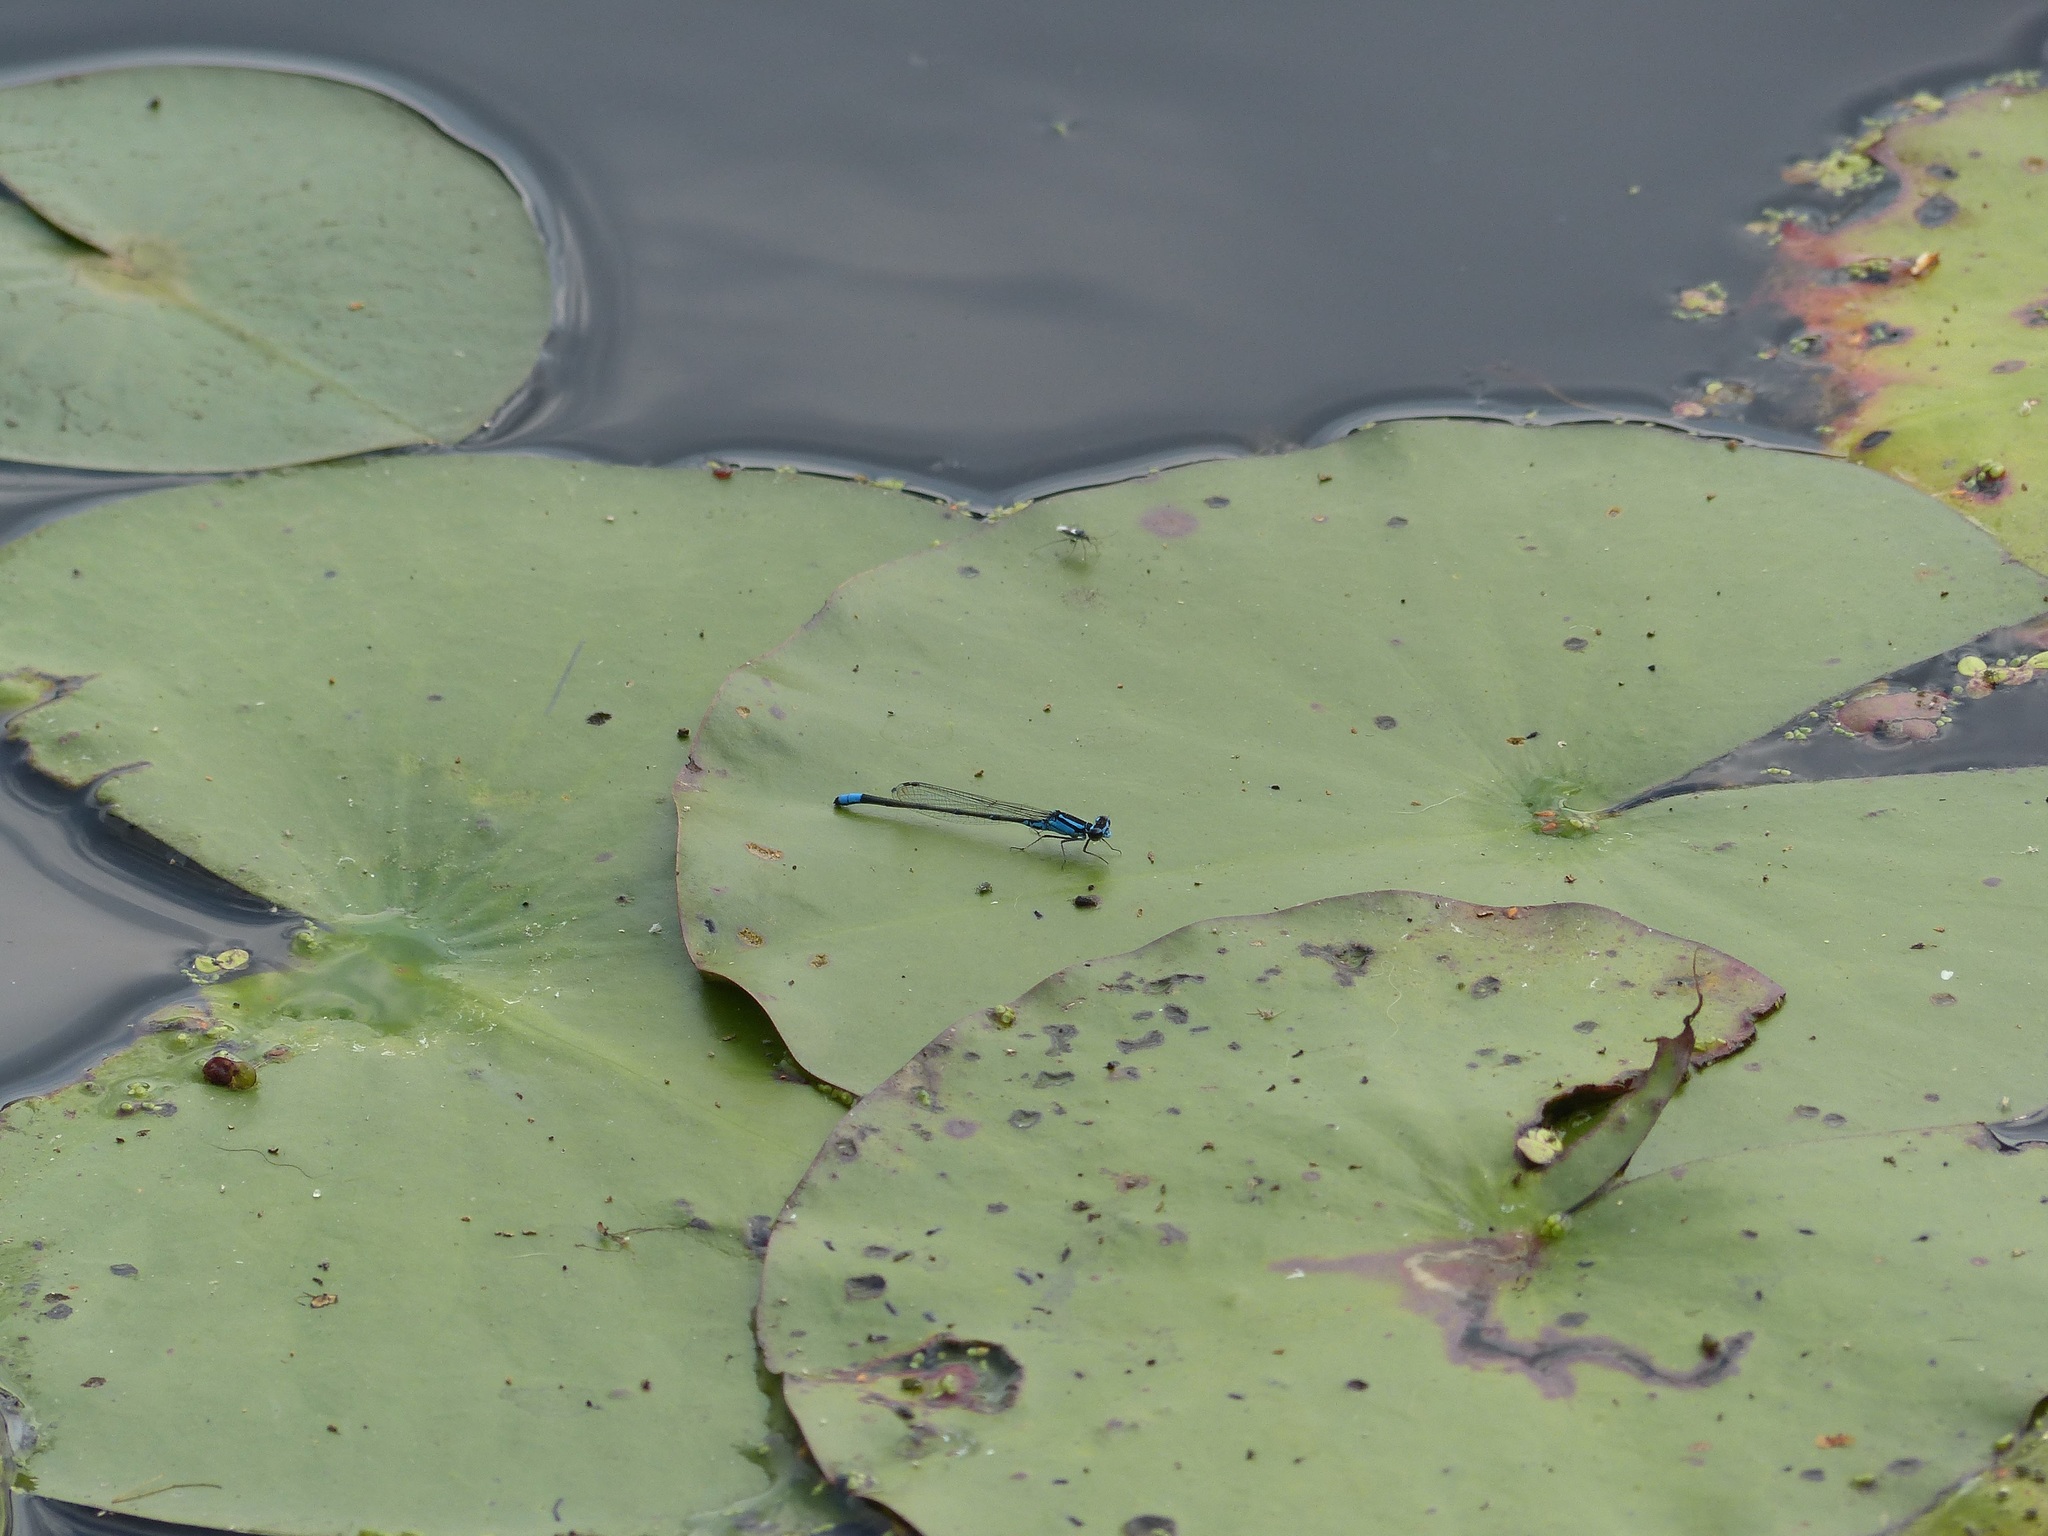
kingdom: Animalia
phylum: Arthropoda
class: Insecta
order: Odonata
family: Coenagrionidae
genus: Enallagma
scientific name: Enallagma geminatum
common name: Skimming bluet
